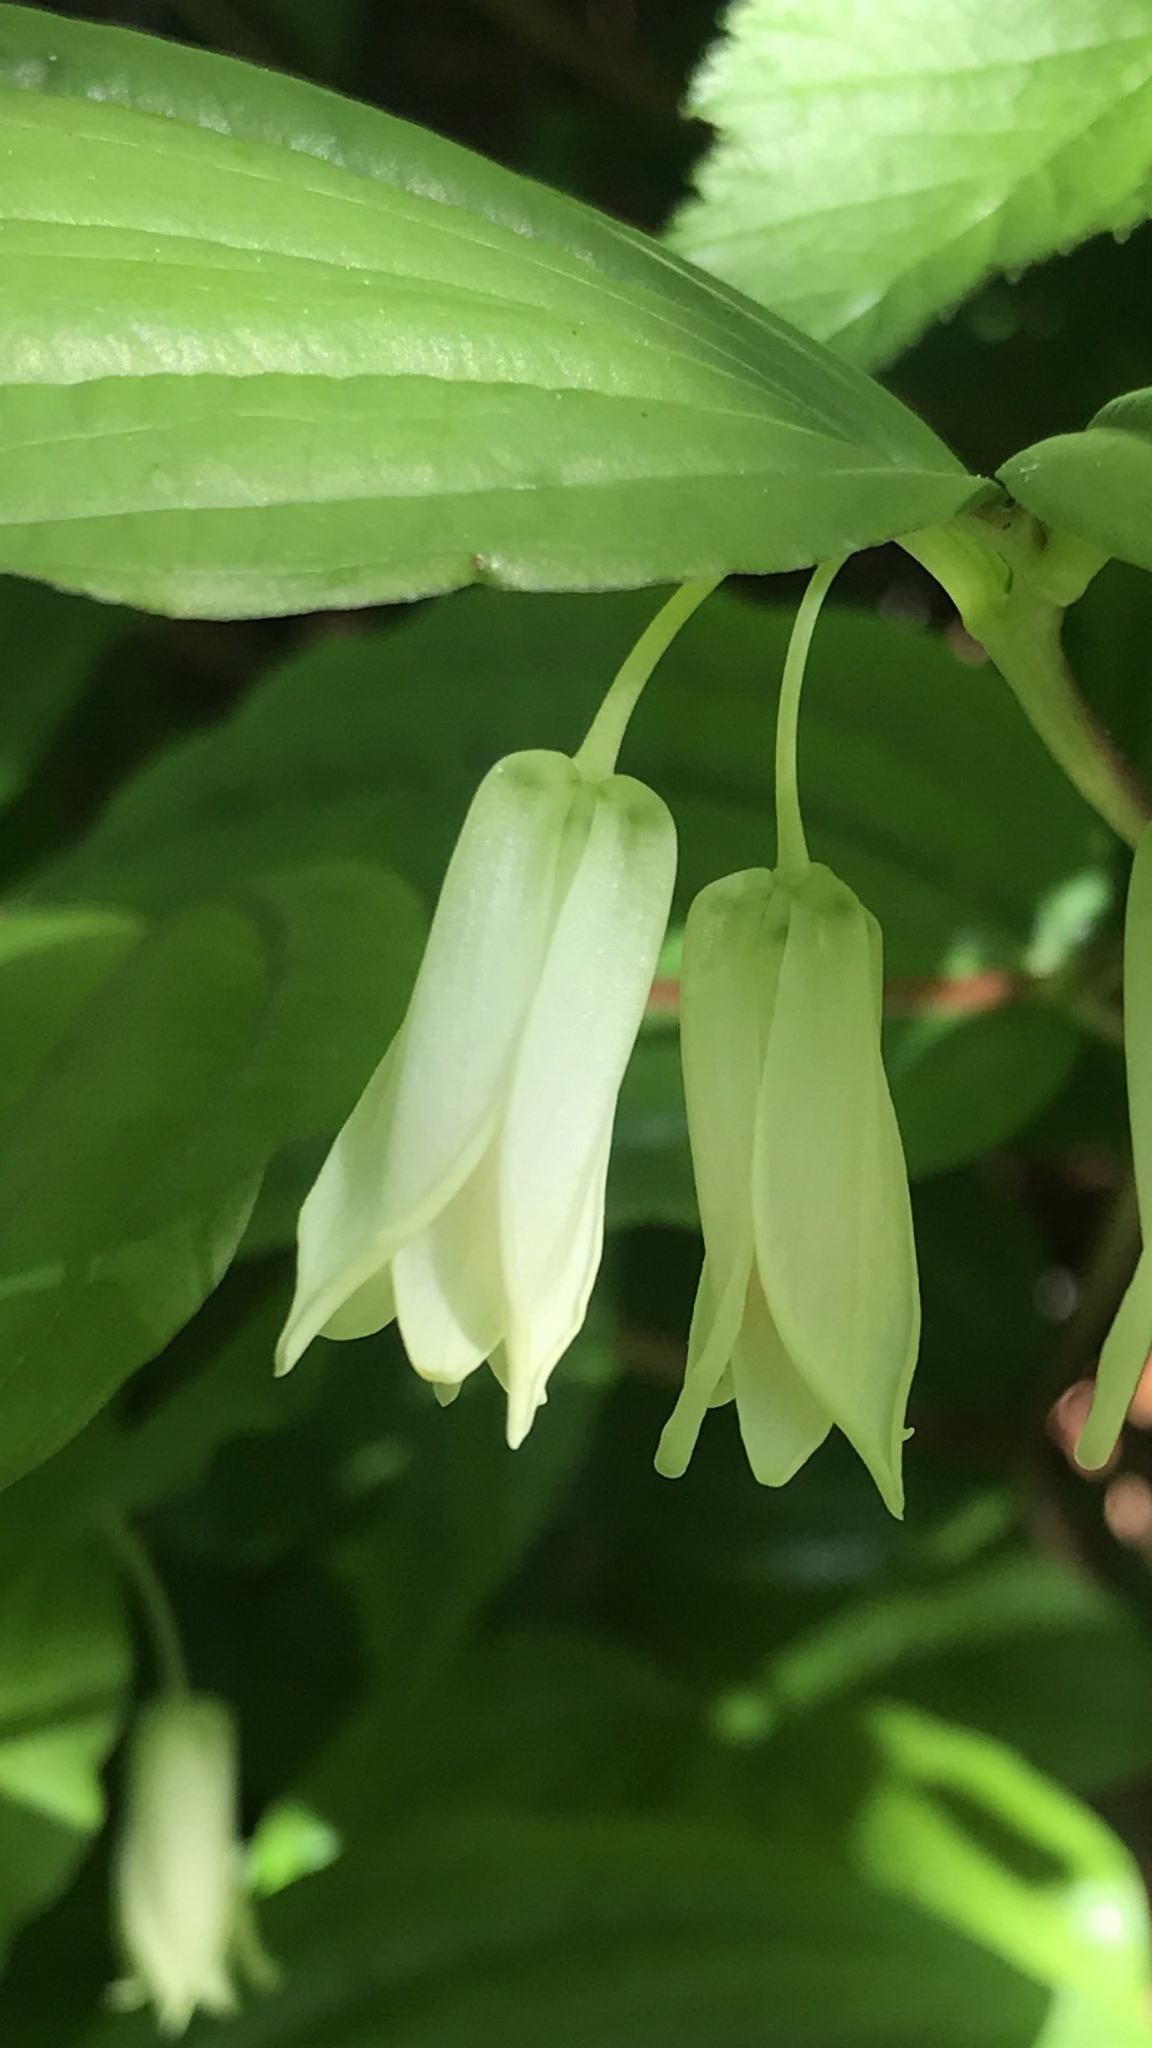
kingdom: Plantae
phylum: Tracheophyta
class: Liliopsida
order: Liliales
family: Liliaceae
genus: Prosartes
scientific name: Prosartes smithii
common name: Fairy-lantern
